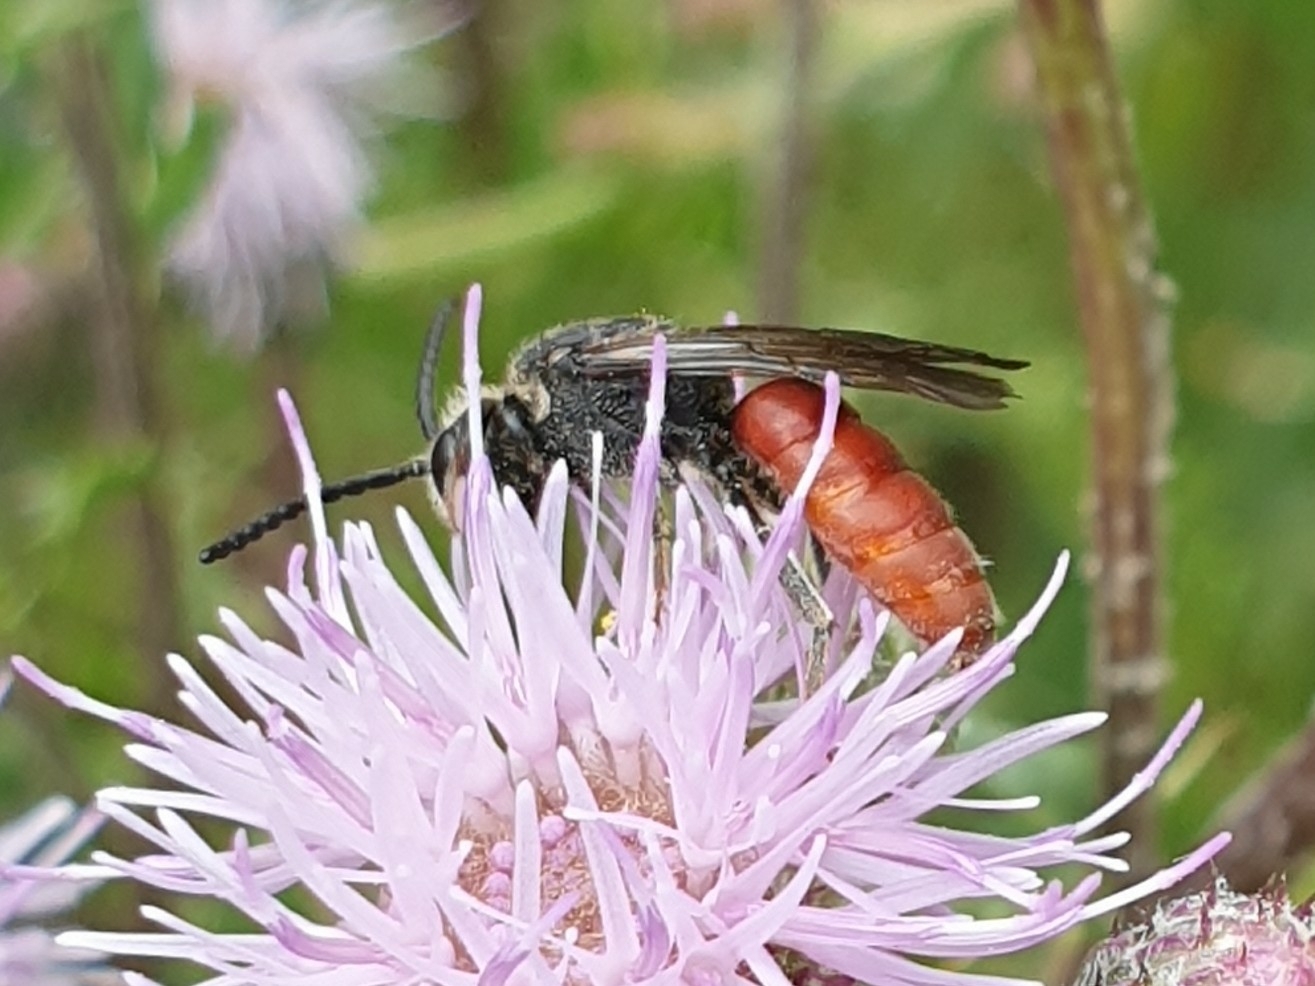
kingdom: Animalia
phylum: Arthropoda
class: Insecta
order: Hymenoptera
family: Halictidae
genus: Sphecodes
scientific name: Sphecodes albilabris
